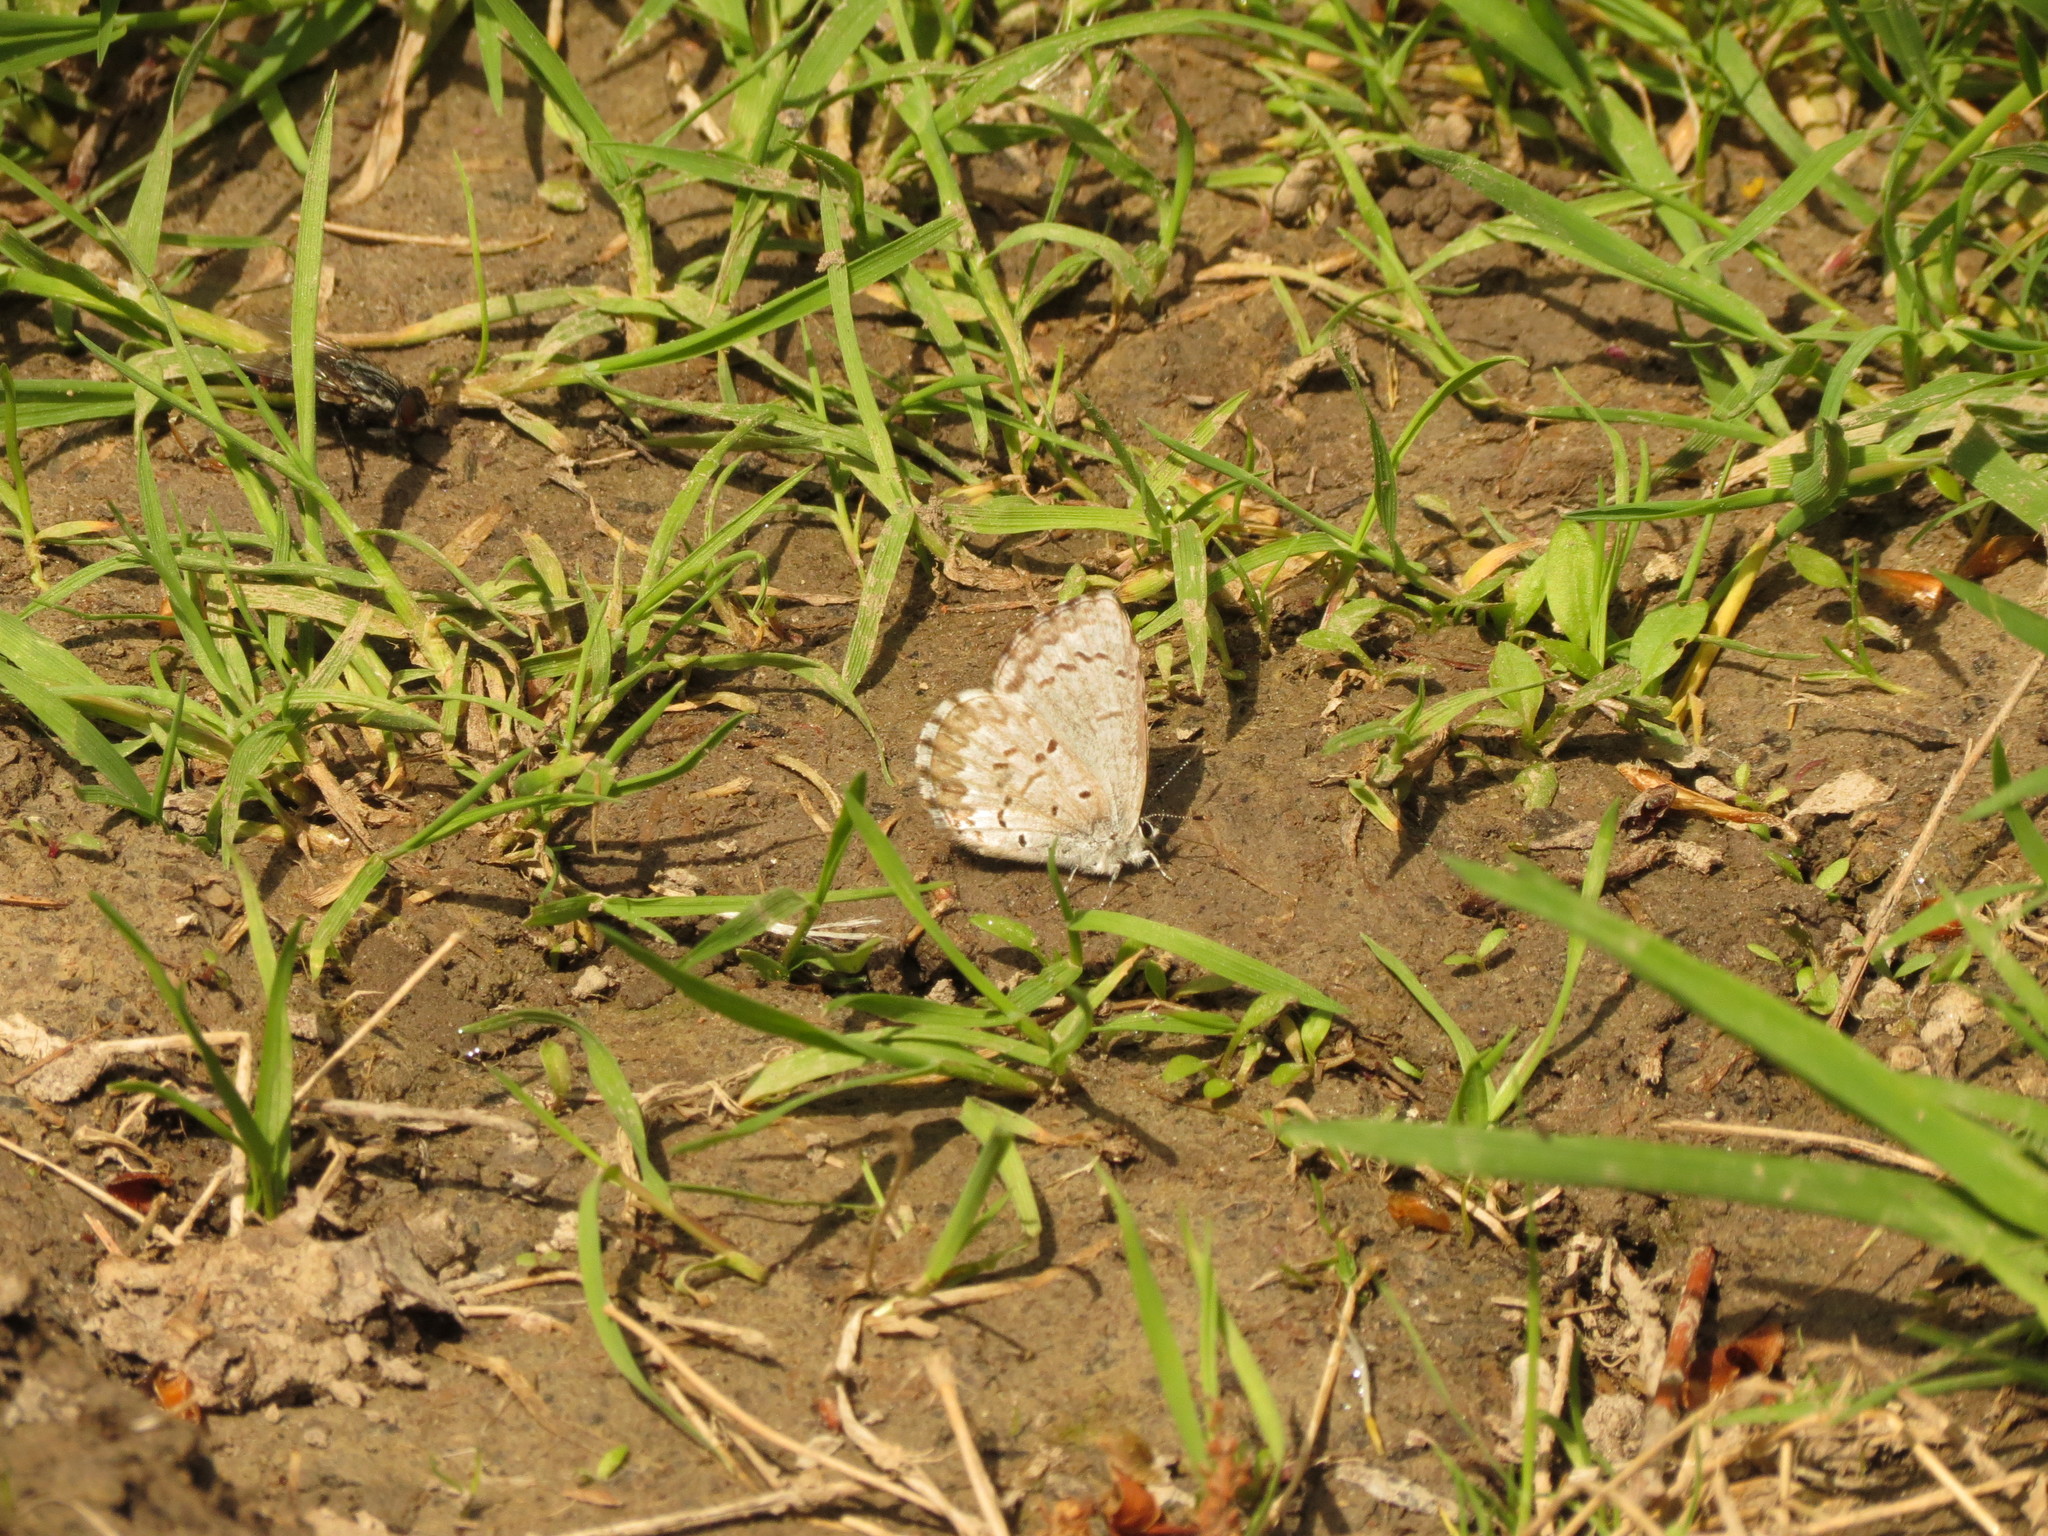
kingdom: Animalia
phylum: Arthropoda
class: Insecta
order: Lepidoptera
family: Lycaenidae
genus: Celastrina
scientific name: Celastrina lucia
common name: Lucia azure
